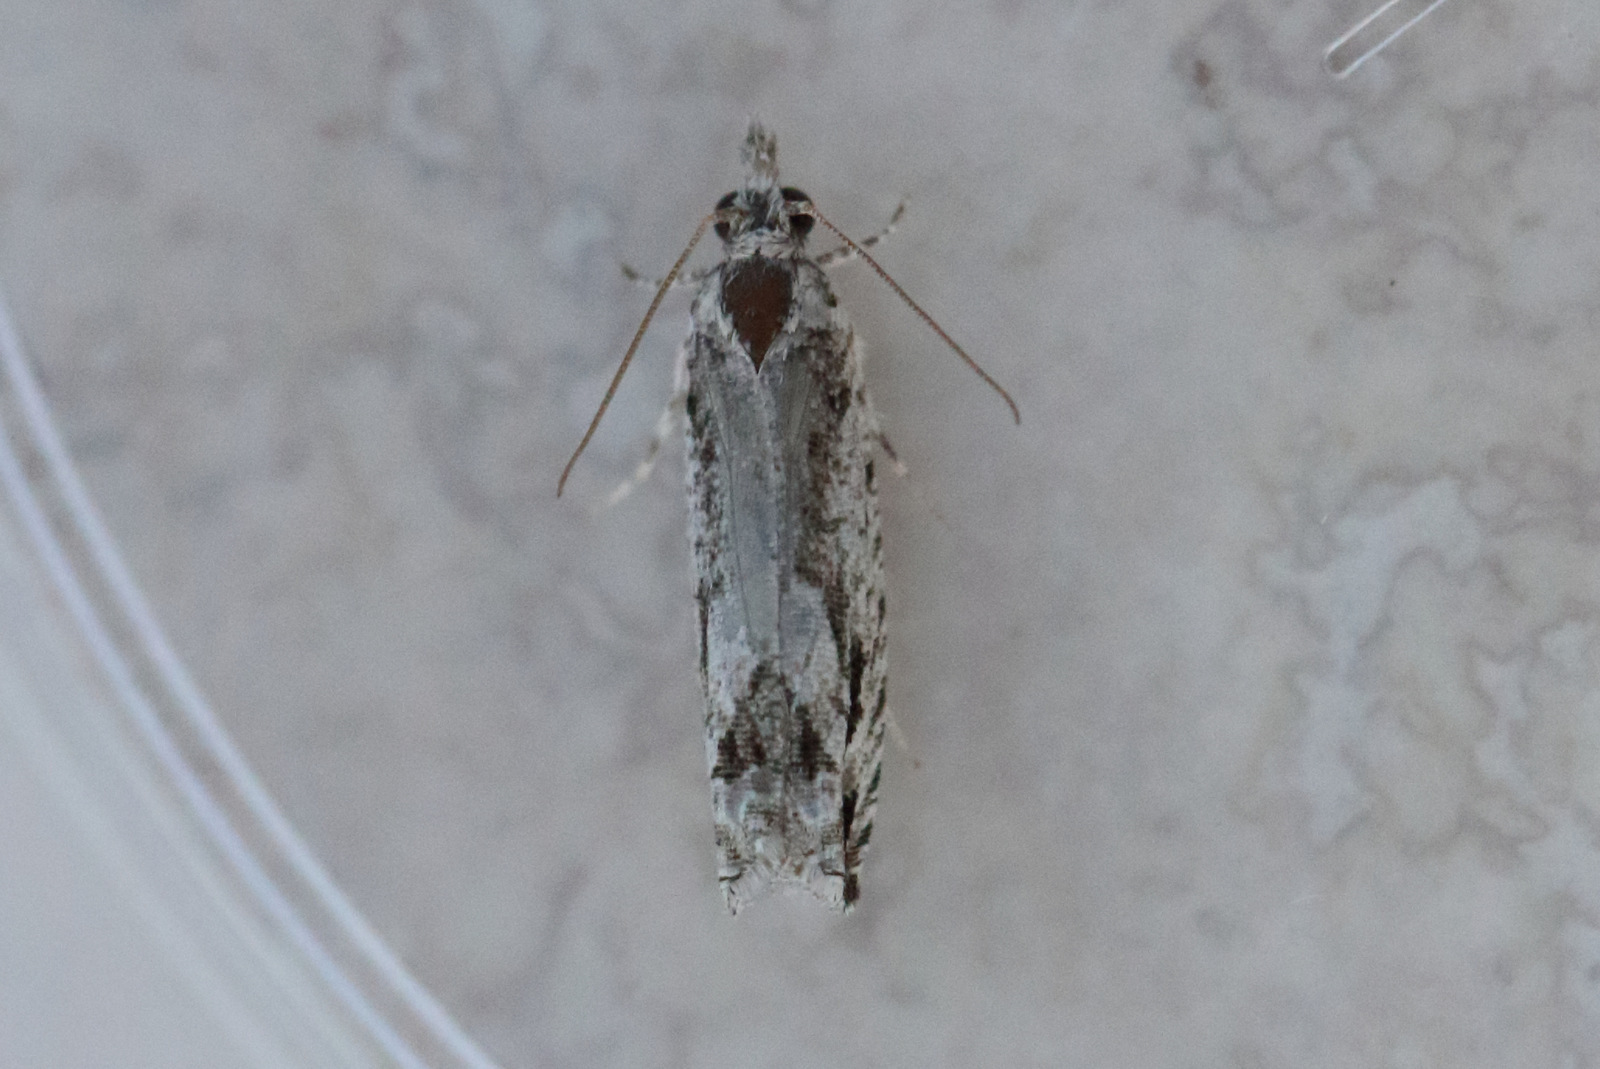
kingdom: Animalia
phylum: Arthropoda
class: Insecta
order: Lepidoptera
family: Tortricidae
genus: Holocola
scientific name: Holocola thalassinana
